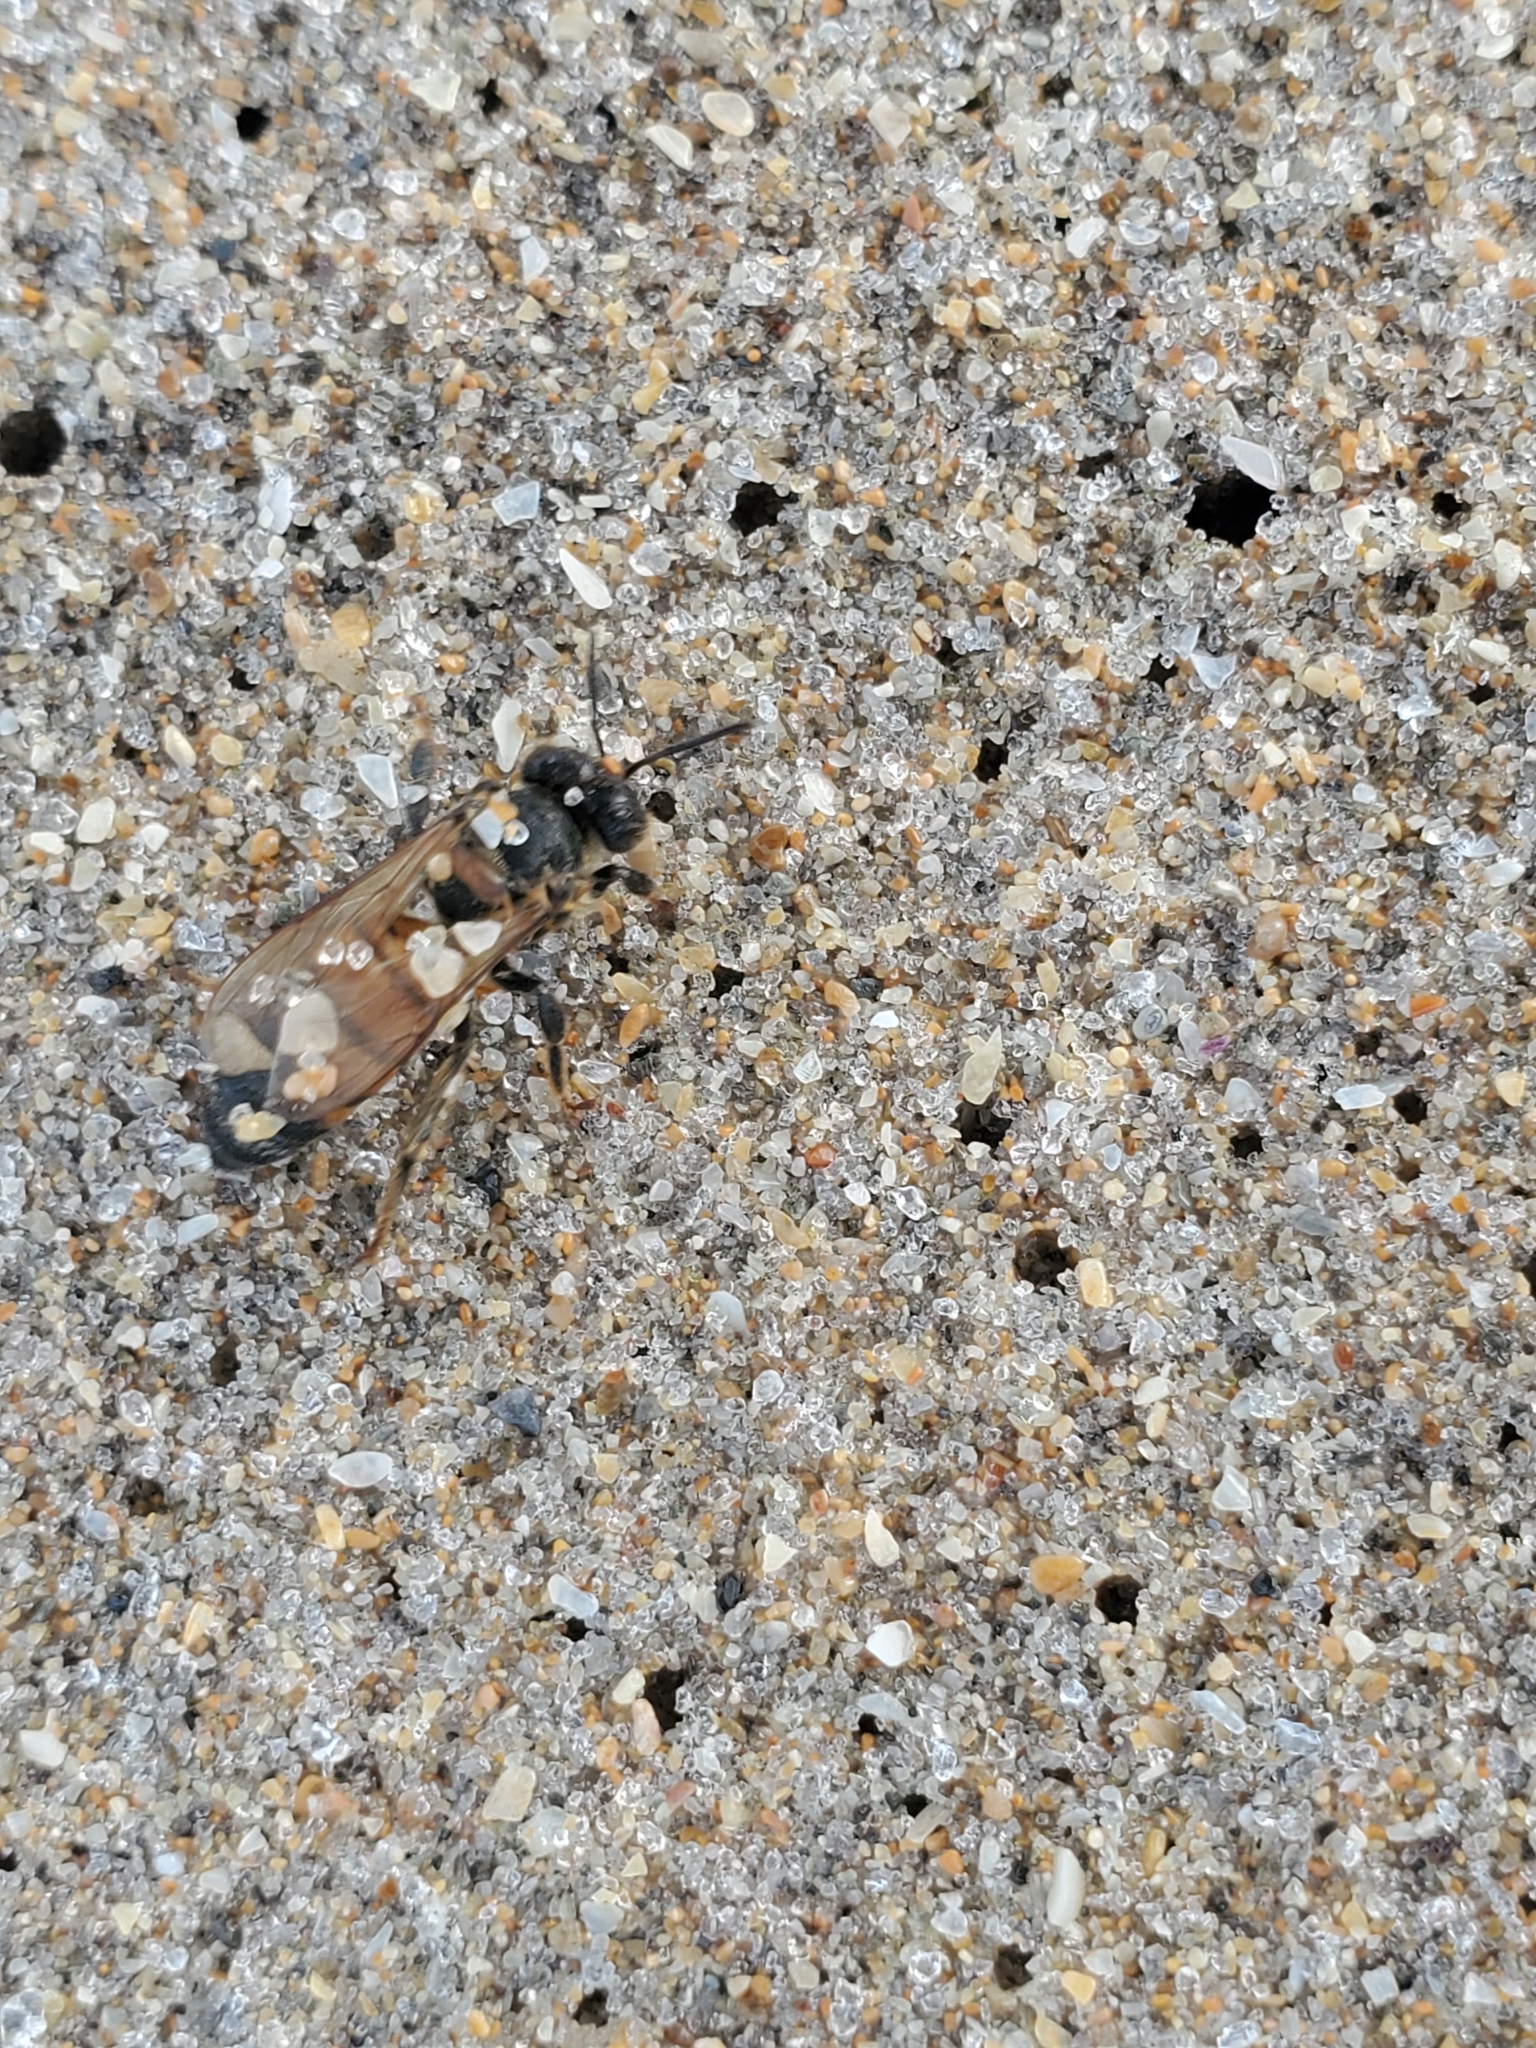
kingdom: Animalia
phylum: Arthropoda
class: Insecta
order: Hymenoptera
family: Apidae
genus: Apis
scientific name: Apis mellifera
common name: Honey bee
